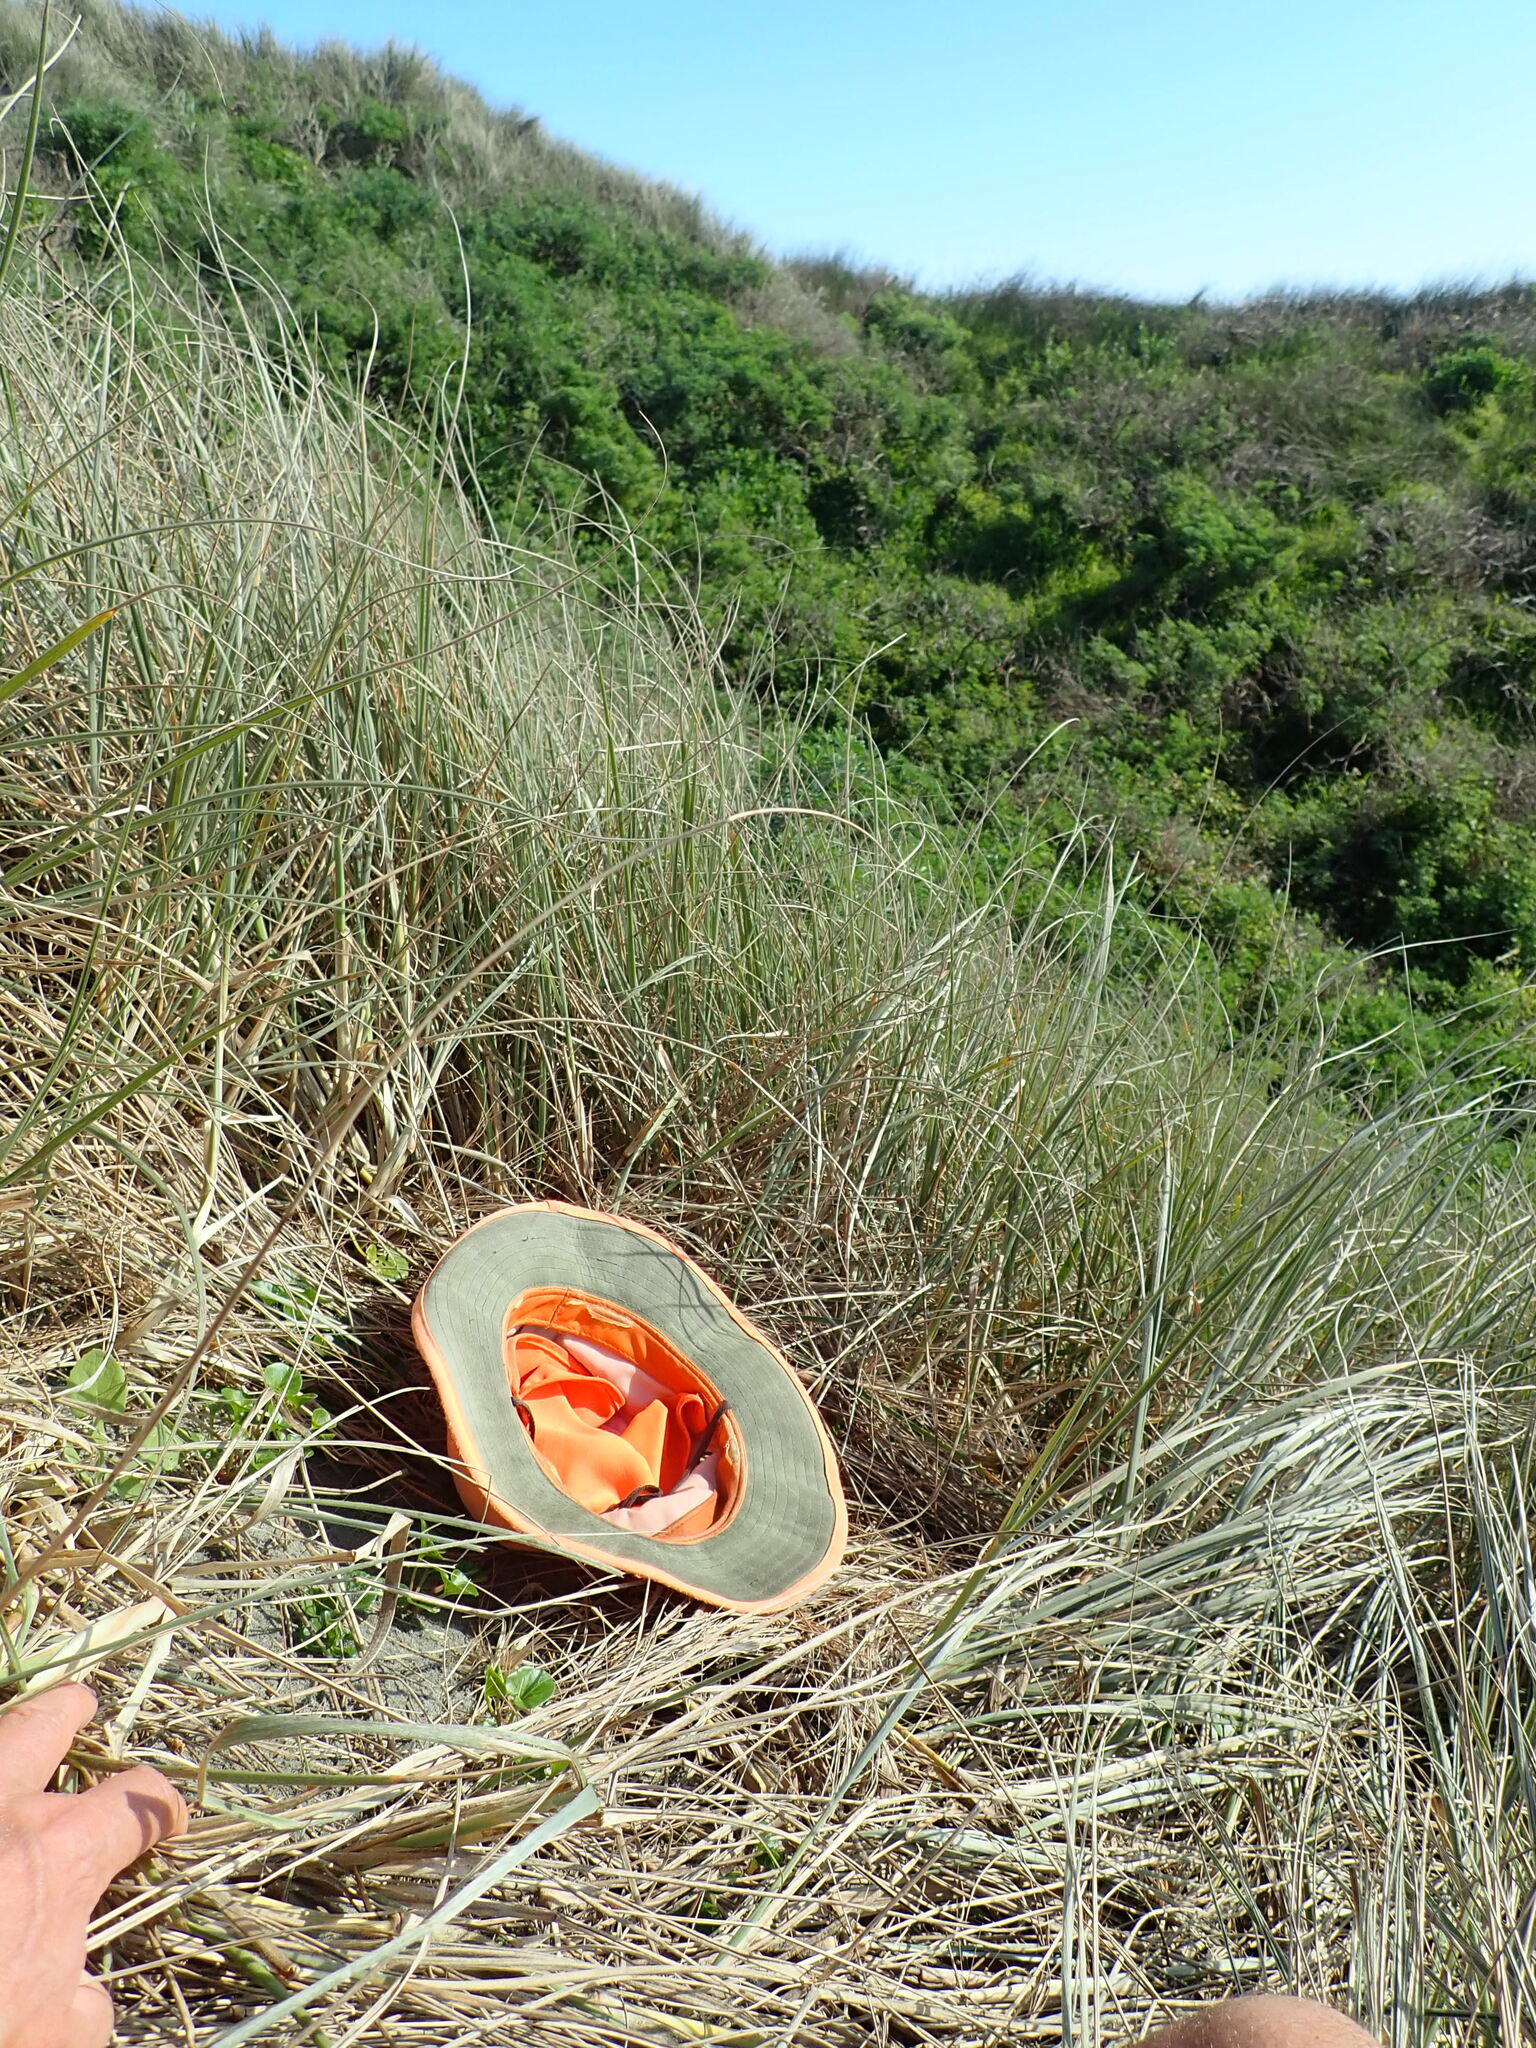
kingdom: Plantae
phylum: Tracheophyta
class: Magnoliopsida
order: Solanales
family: Convolvulaceae
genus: Calystegia
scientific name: Calystegia soldanella
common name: Sea bindweed
